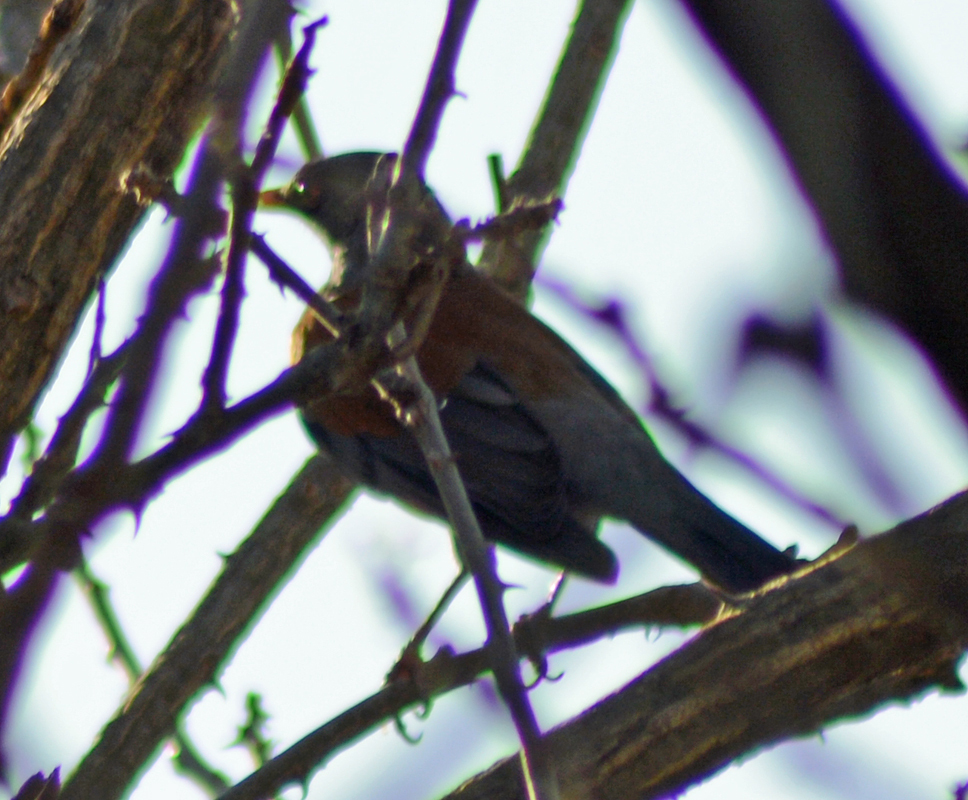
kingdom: Animalia
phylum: Chordata
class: Aves
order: Passeriformes
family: Turdidae
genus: Turdus
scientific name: Turdus rufopalliatus
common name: Rufous-backed robin
